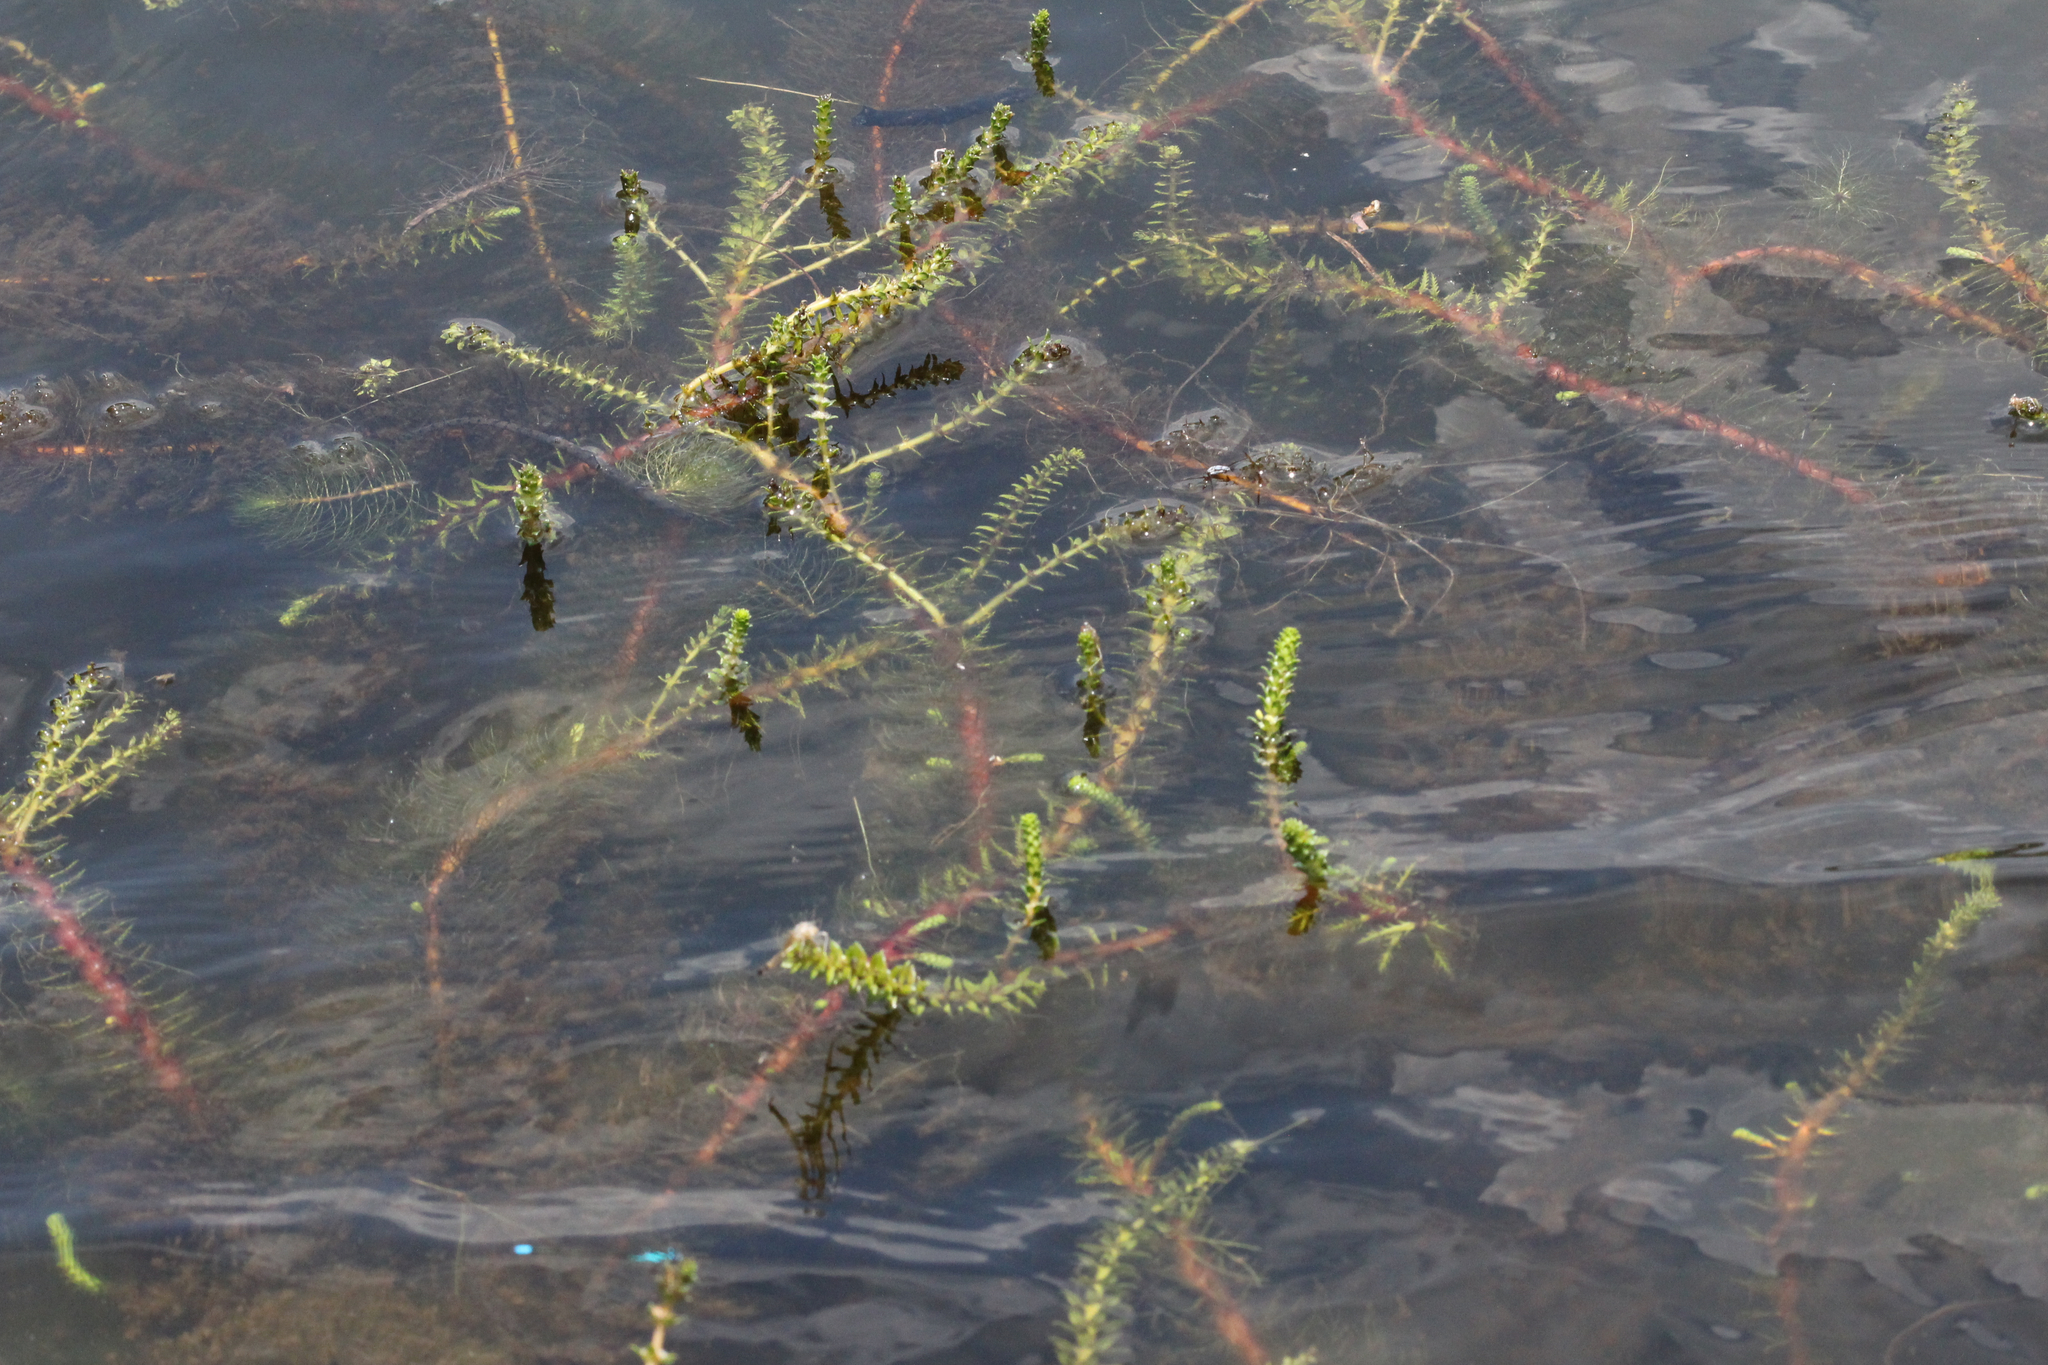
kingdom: Plantae
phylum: Tracheophyta
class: Magnoliopsida
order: Saxifragales
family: Haloragaceae
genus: Myriophyllum
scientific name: Myriophyllum heterophyllum
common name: Variable watermilfoil
